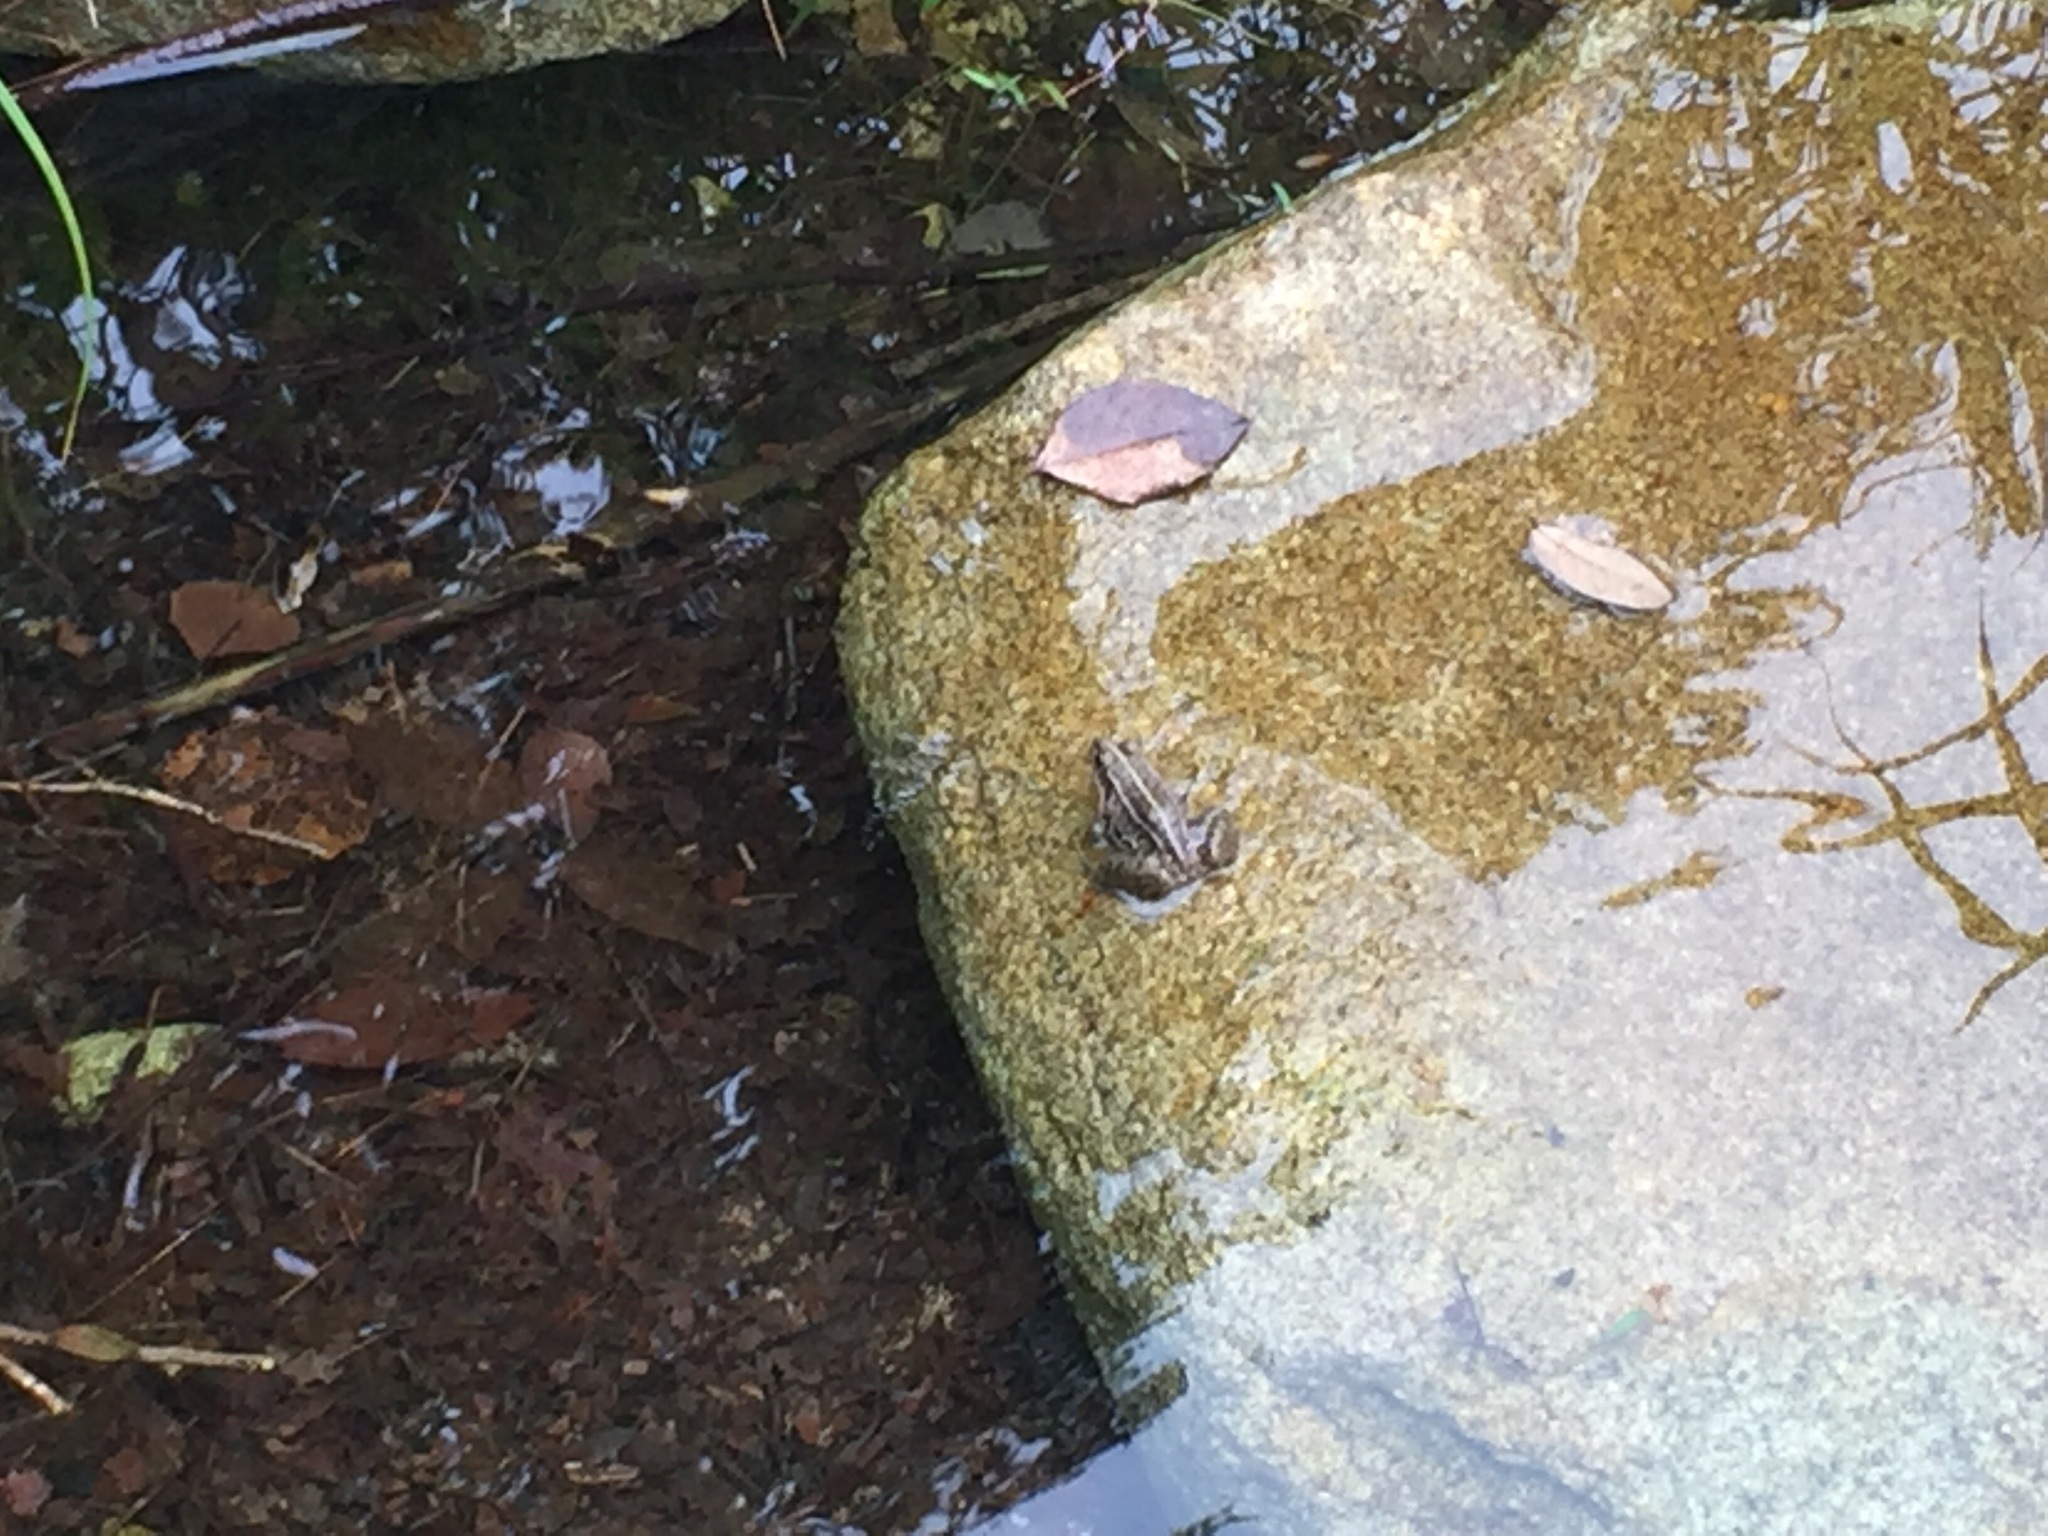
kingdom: Animalia
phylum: Chordata
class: Amphibia
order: Anura
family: Ranidae
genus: Pelophylax
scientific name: Pelophylax nigromaculatus
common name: Black-spotted pond frog
